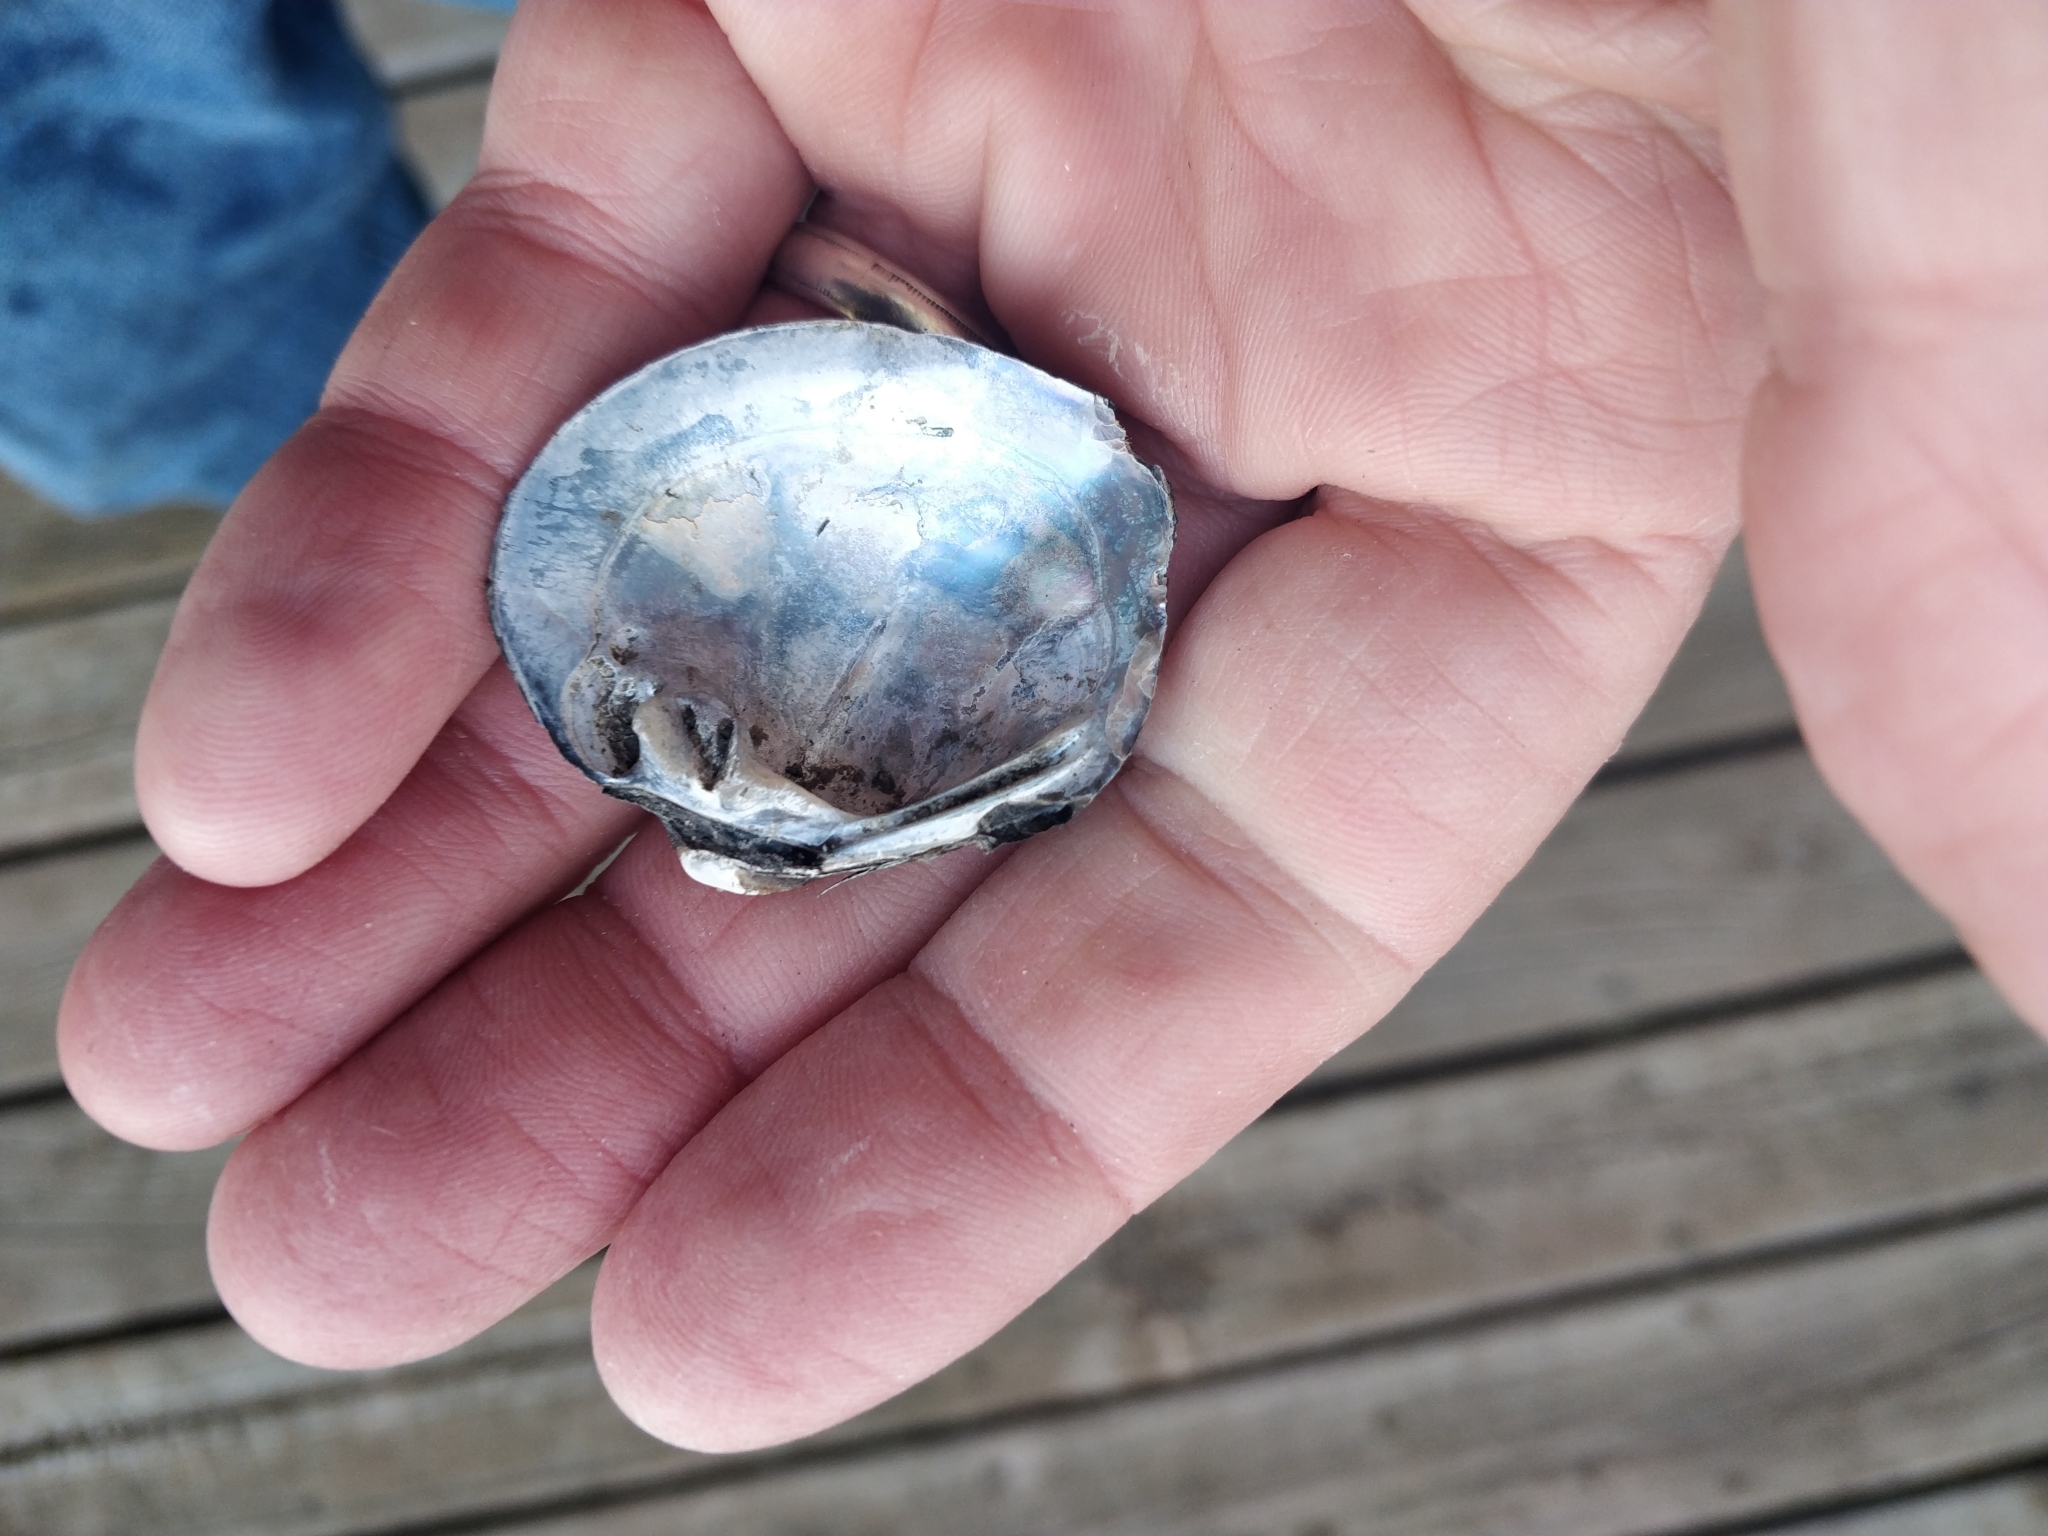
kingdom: Animalia
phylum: Mollusca
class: Bivalvia
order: Unionida
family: Unionidae
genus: Cyclonaias
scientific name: Cyclonaias pustulosa
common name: Pimpleback
